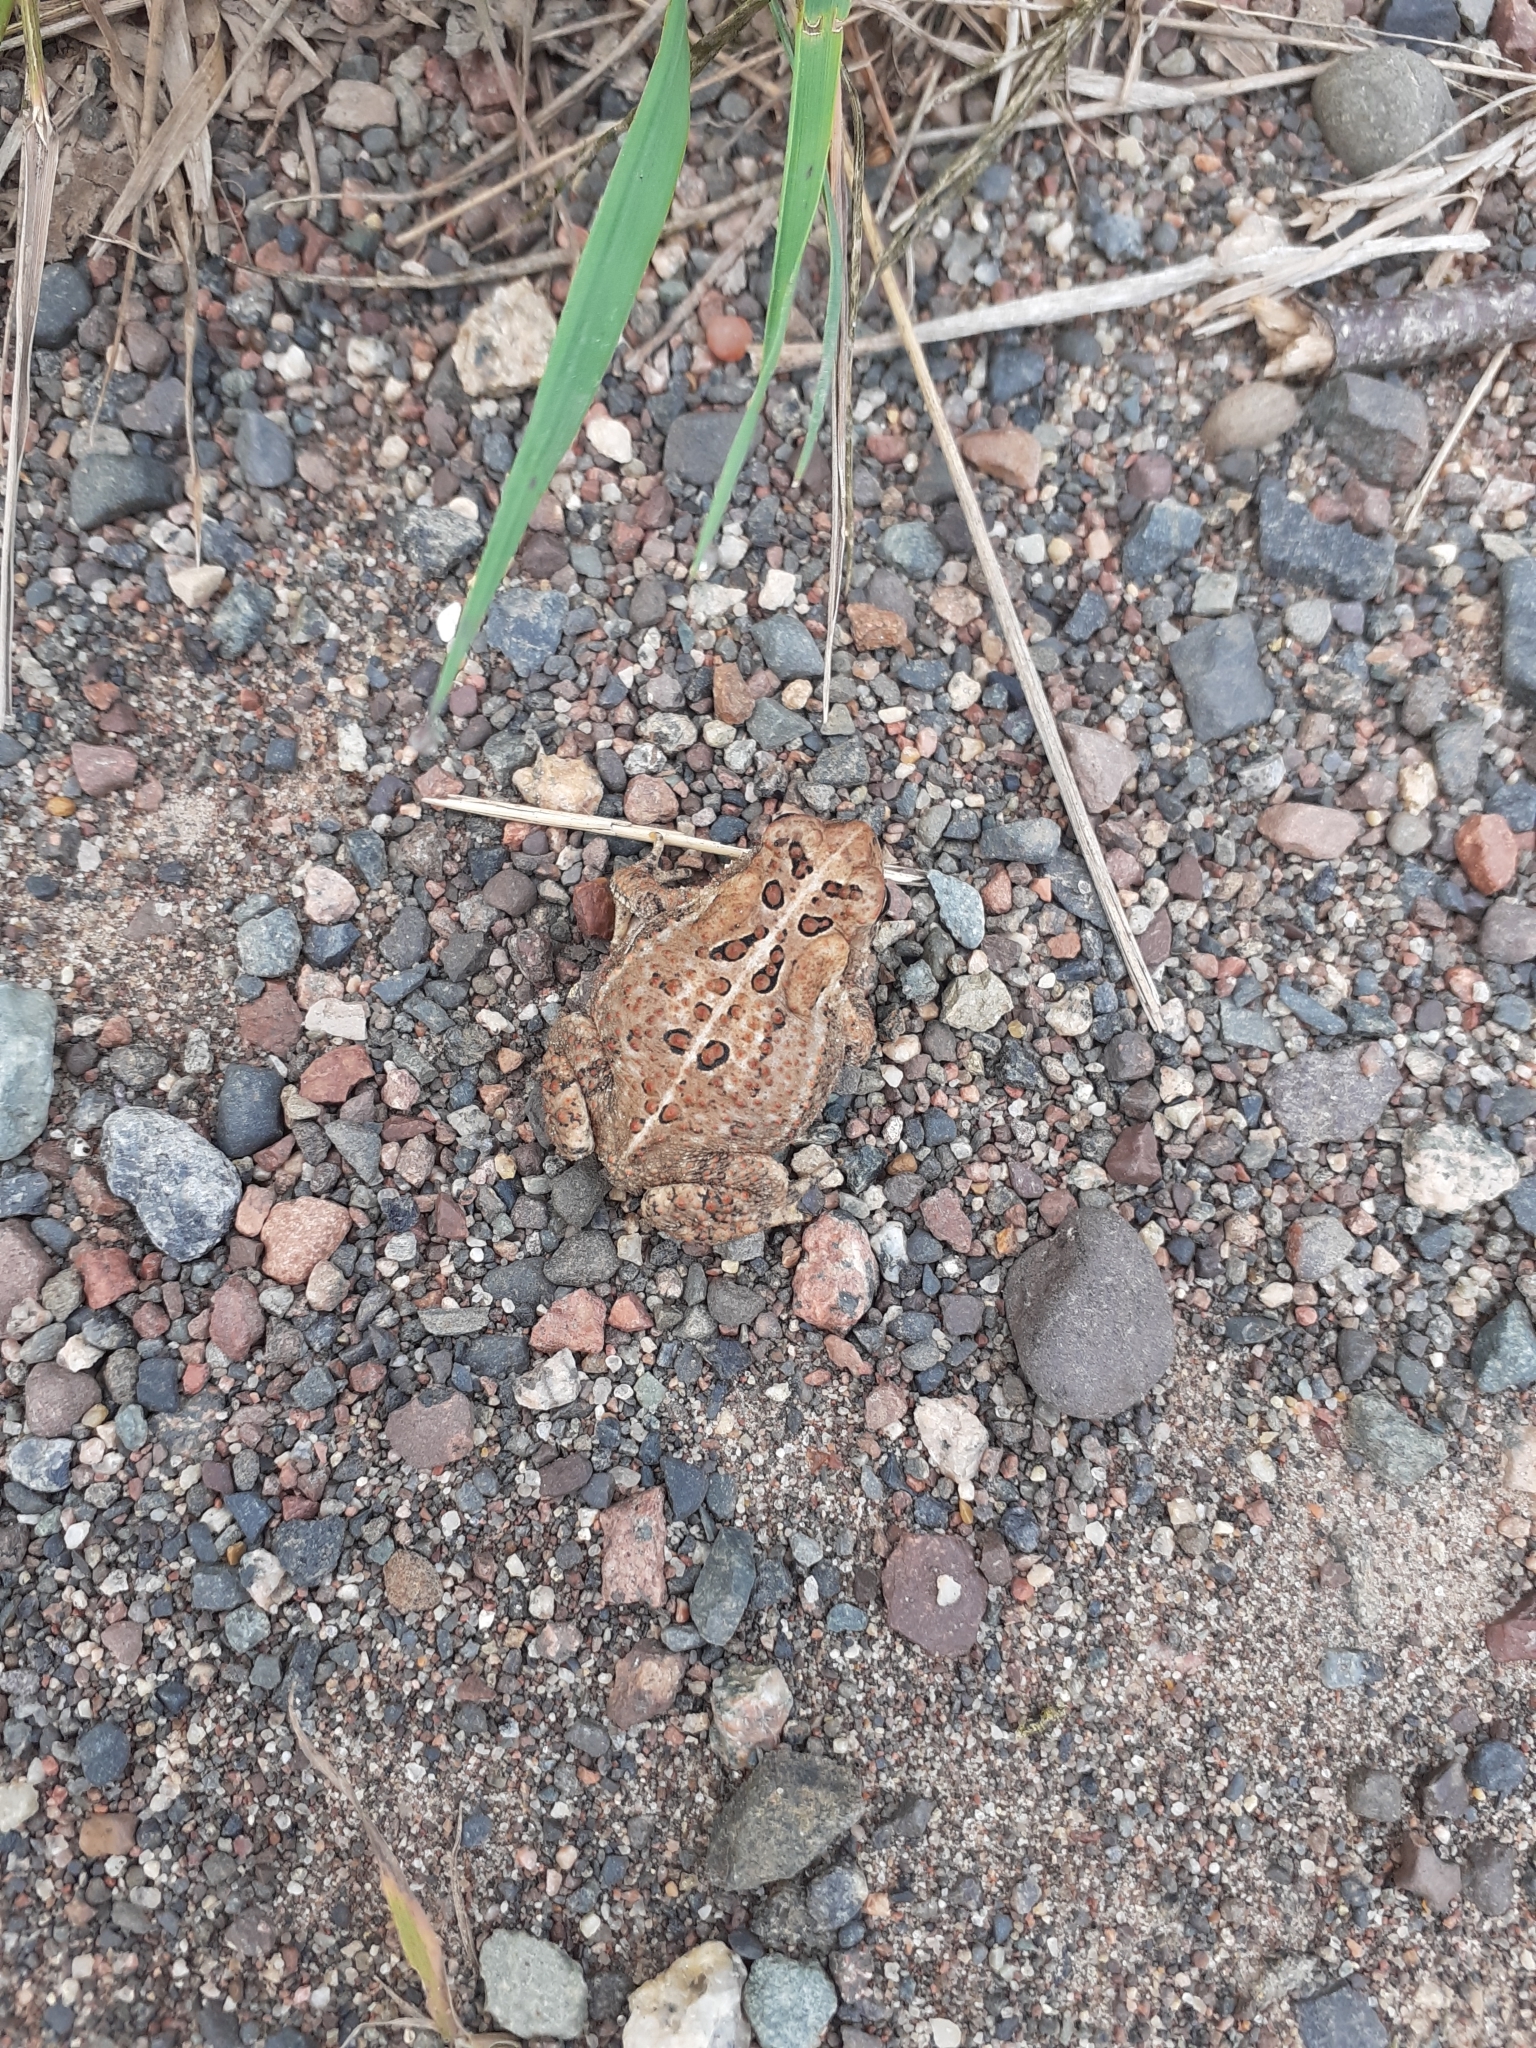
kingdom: Animalia
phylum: Chordata
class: Amphibia
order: Anura
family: Bufonidae
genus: Anaxyrus
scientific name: Anaxyrus americanus
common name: American toad
